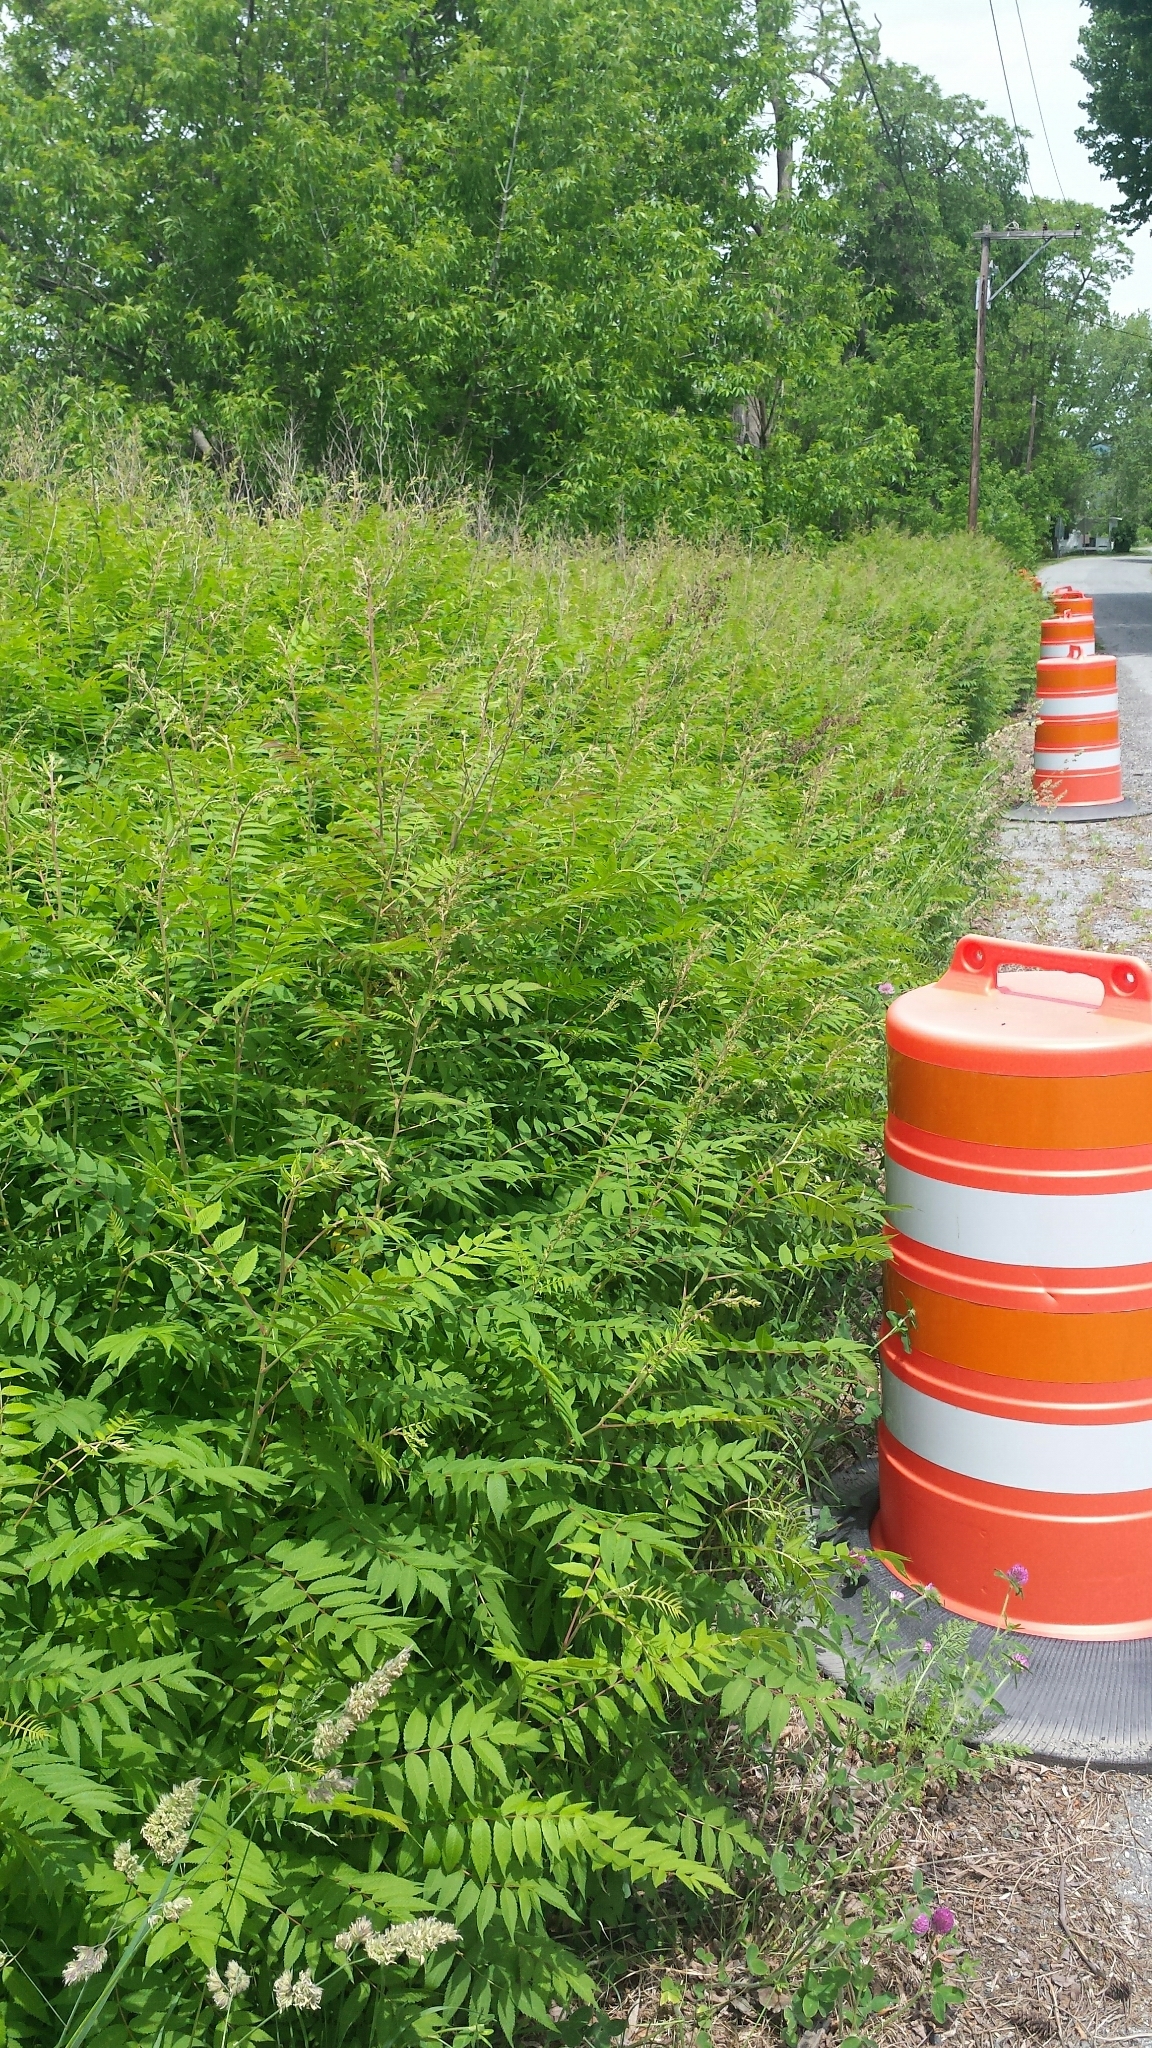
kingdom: Plantae
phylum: Tracheophyta
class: Magnoliopsida
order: Rosales
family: Rosaceae
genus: Sorbaria
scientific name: Sorbaria sorbifolia
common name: False spiraea
